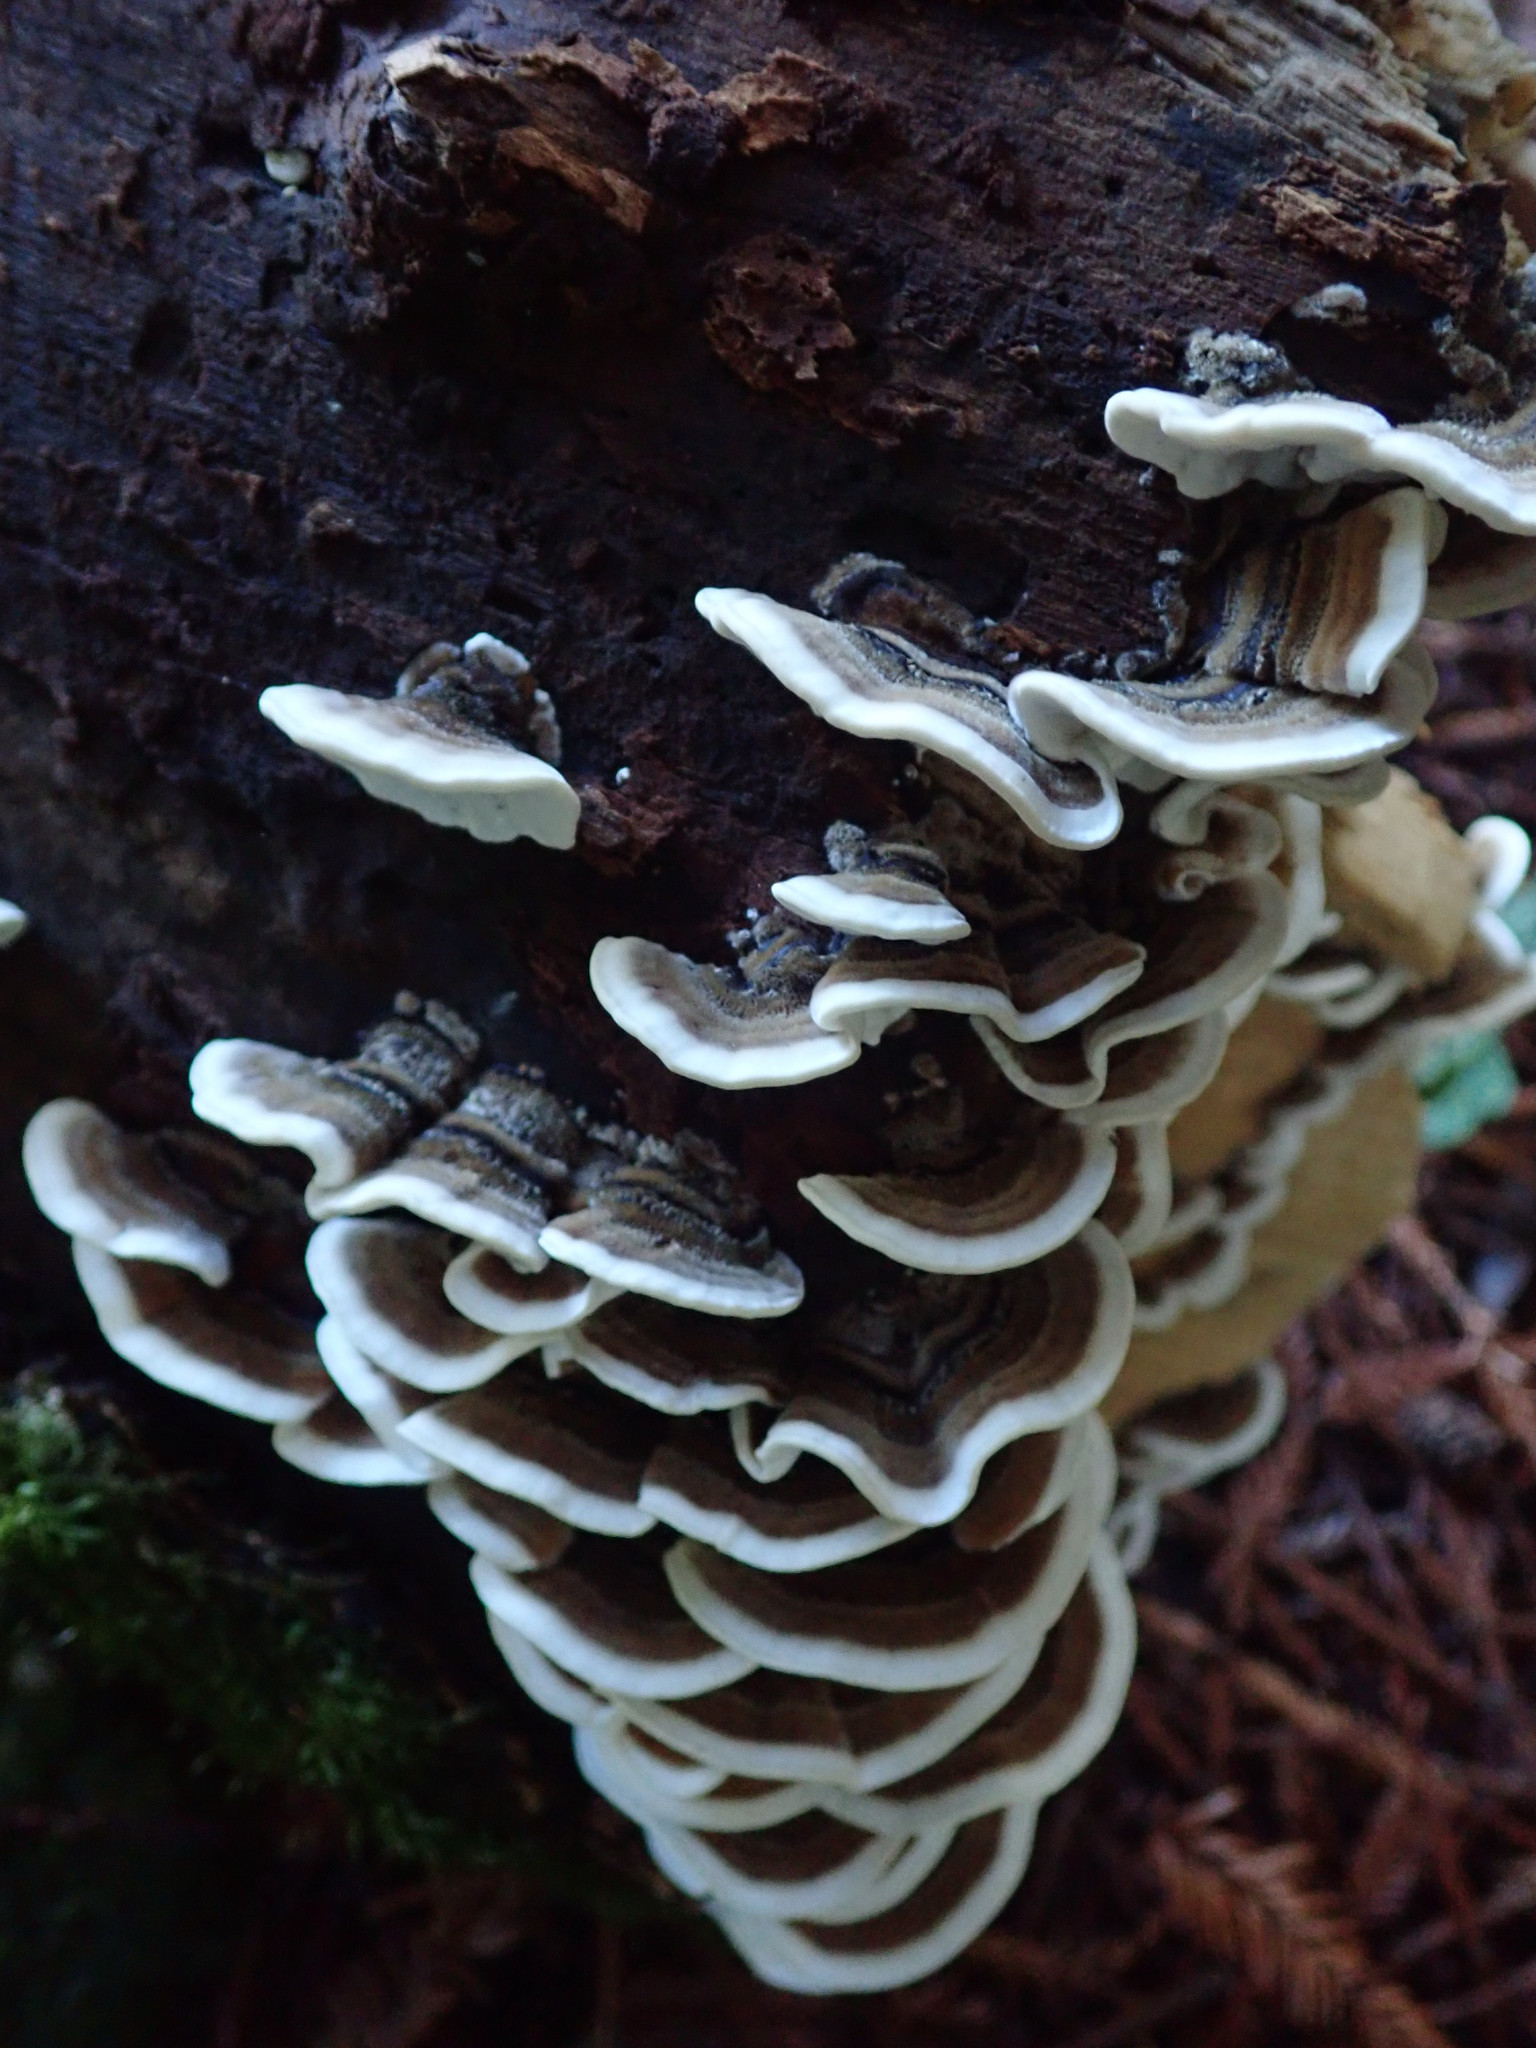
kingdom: Fungi
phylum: Basidiomycota
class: Agaricomycetes
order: Polyporales
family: Polyporaceae
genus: Trametes
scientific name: Trametes versicolor
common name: Turkeytail
